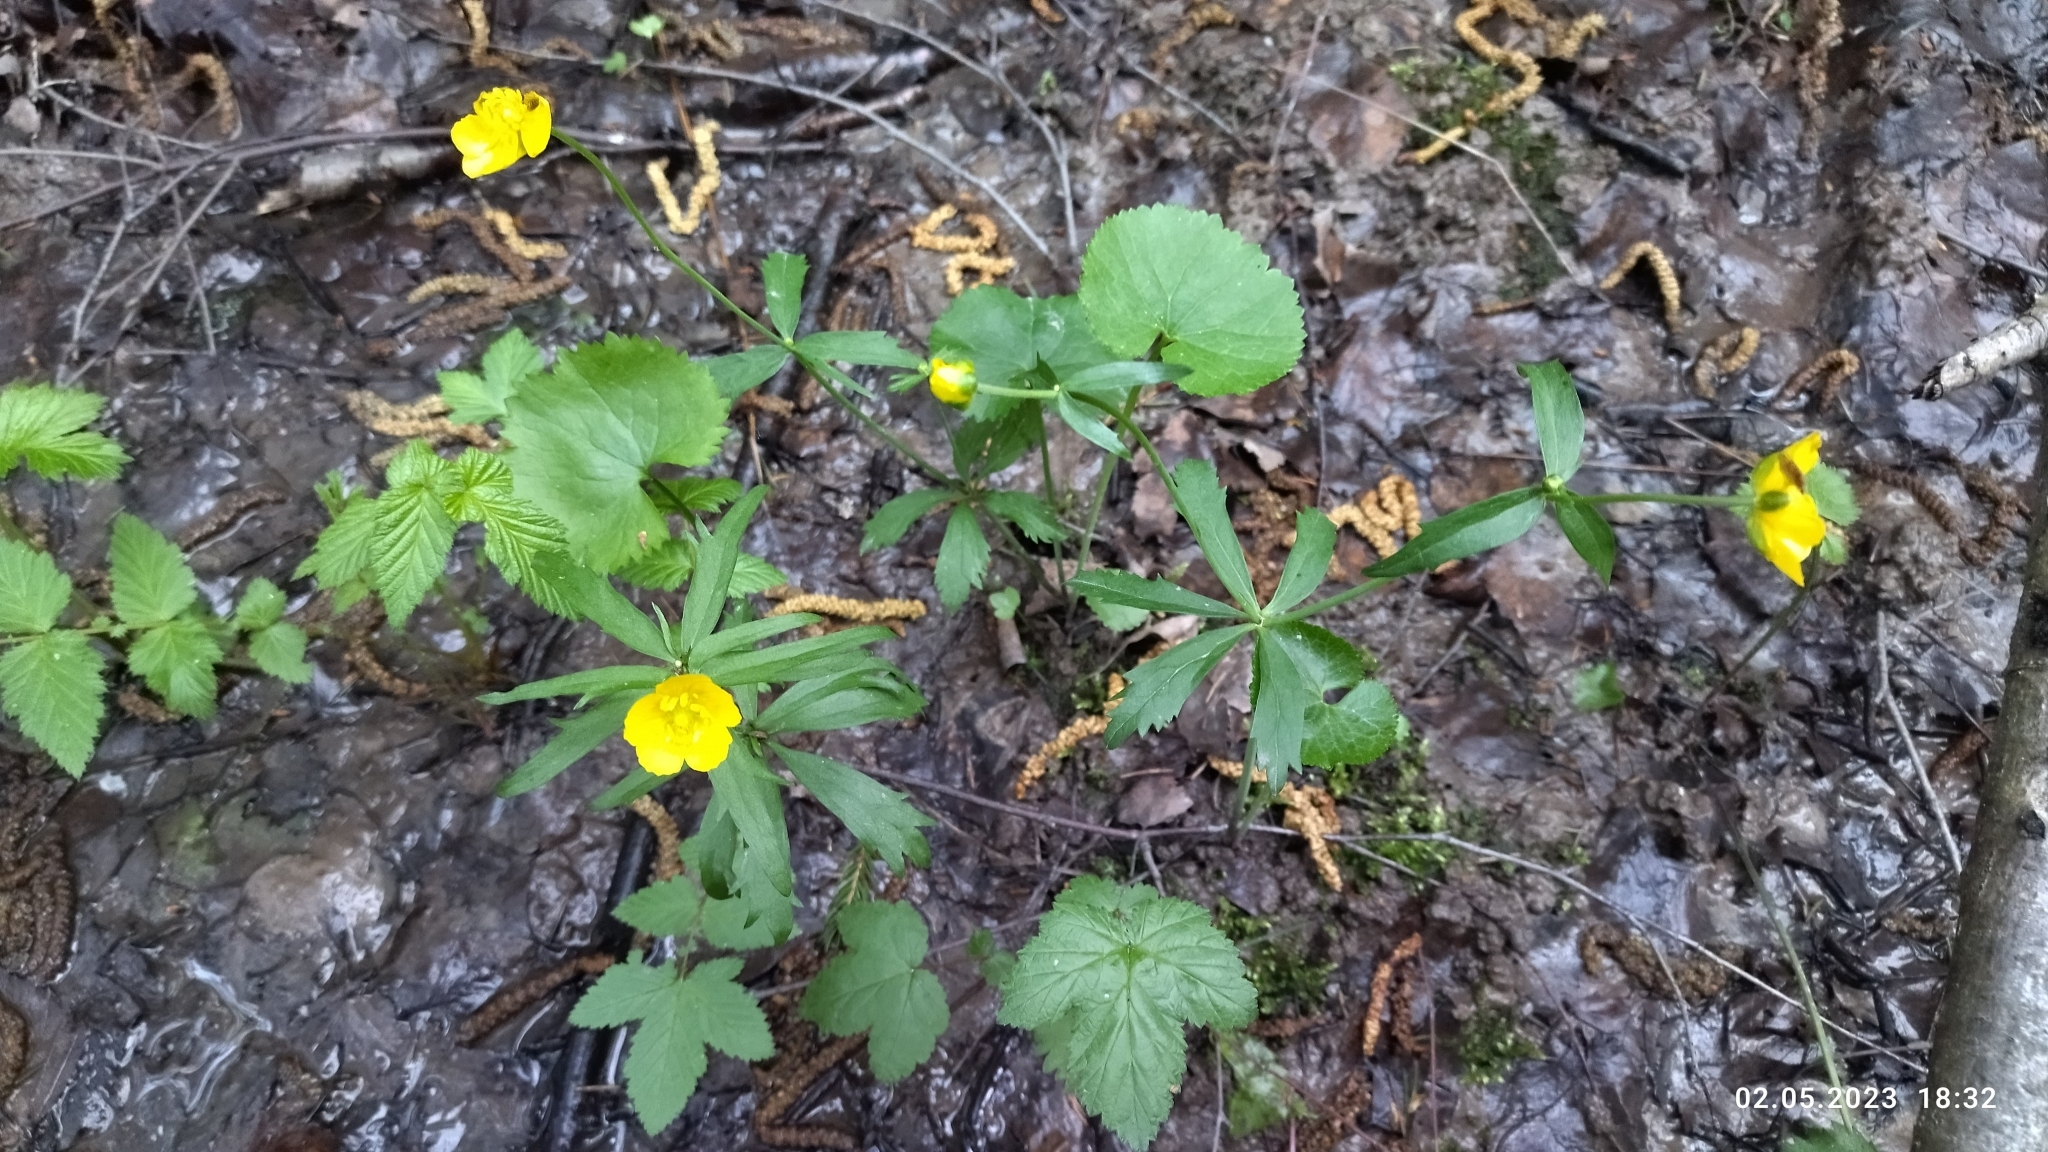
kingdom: Plantae
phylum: Tracheophyta
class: Magnoliopsida
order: Ranunculales
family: Ranunculaceae
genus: Ranunculus
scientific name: Ranunculus cassubicus
